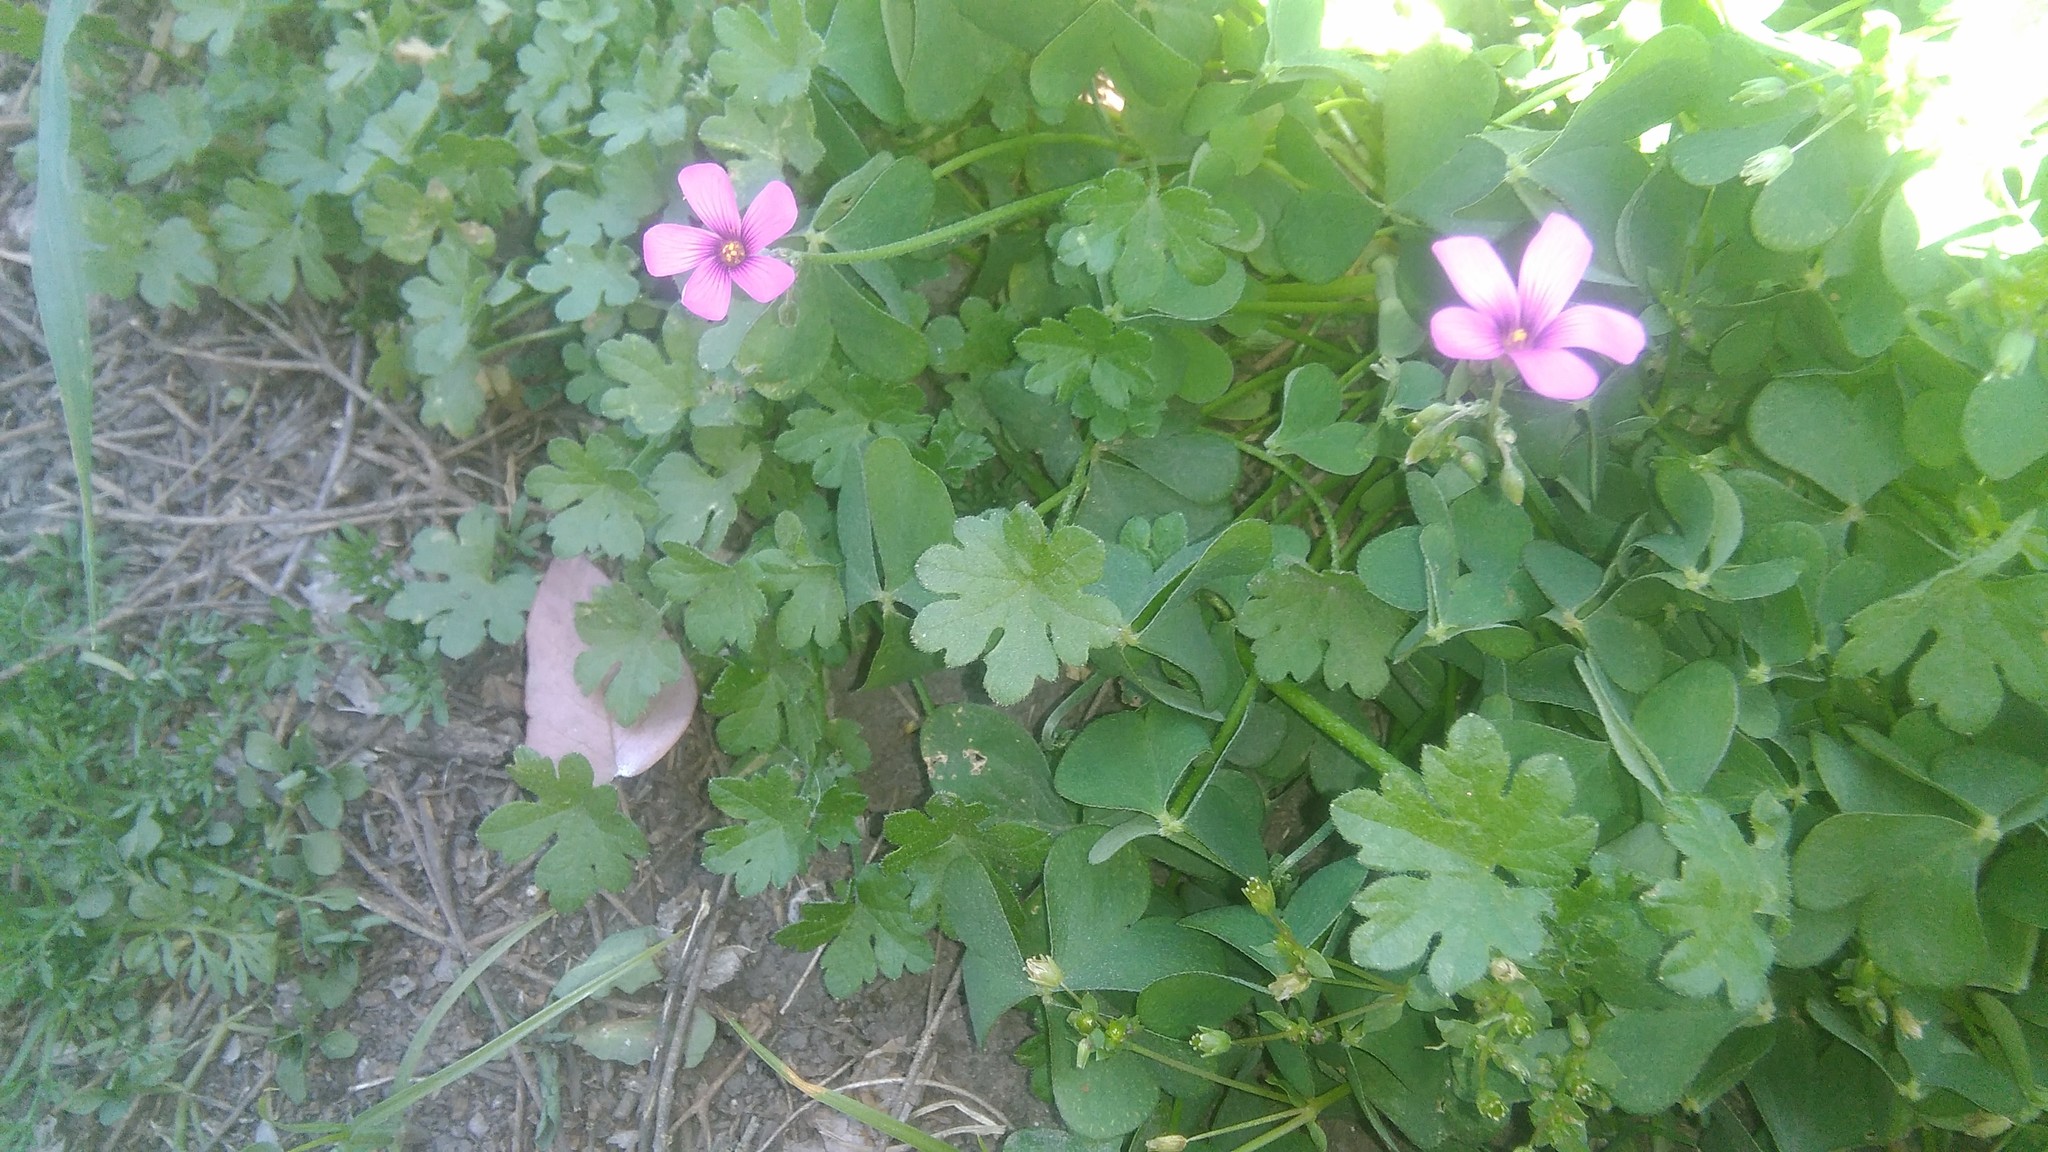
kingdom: Plantae
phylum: Tracheophyta
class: Magnoliopsida
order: Oxalidales
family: Oxalidaceae
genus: Oxalis
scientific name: Oxalis articulata
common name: Pink-sorrel
